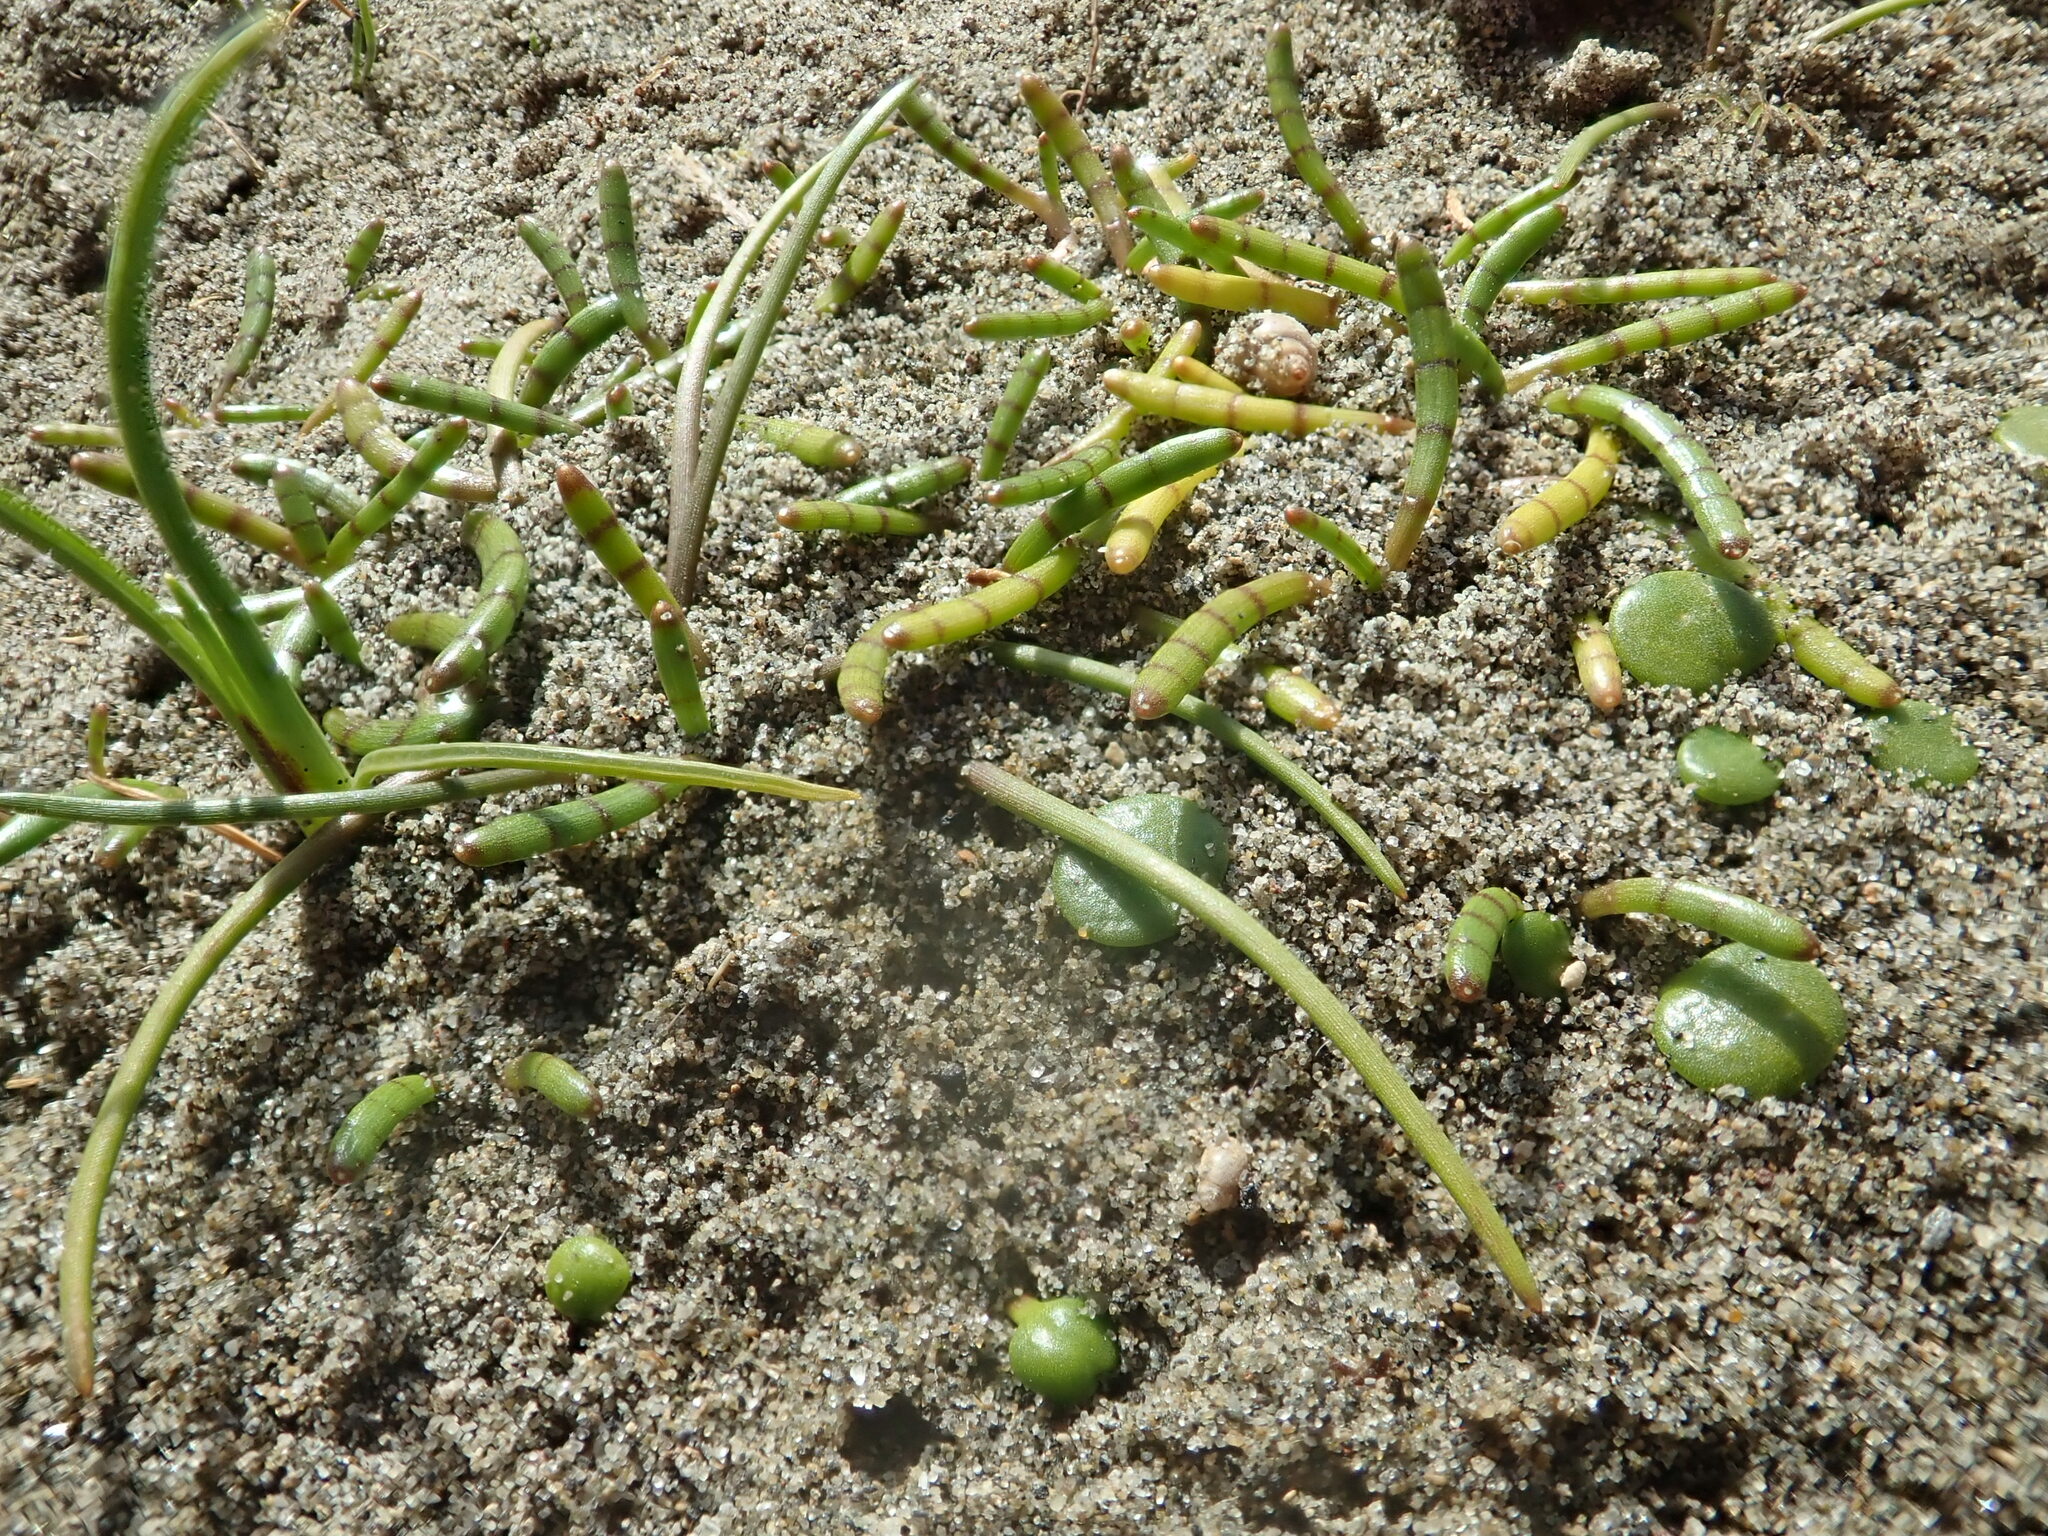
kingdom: Plantae
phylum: Tracheophyta
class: Magnoliopsida
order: Apiales
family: Apiaceae
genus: Lilaeopsis
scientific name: Lilaeopsis novae-zelandiae
